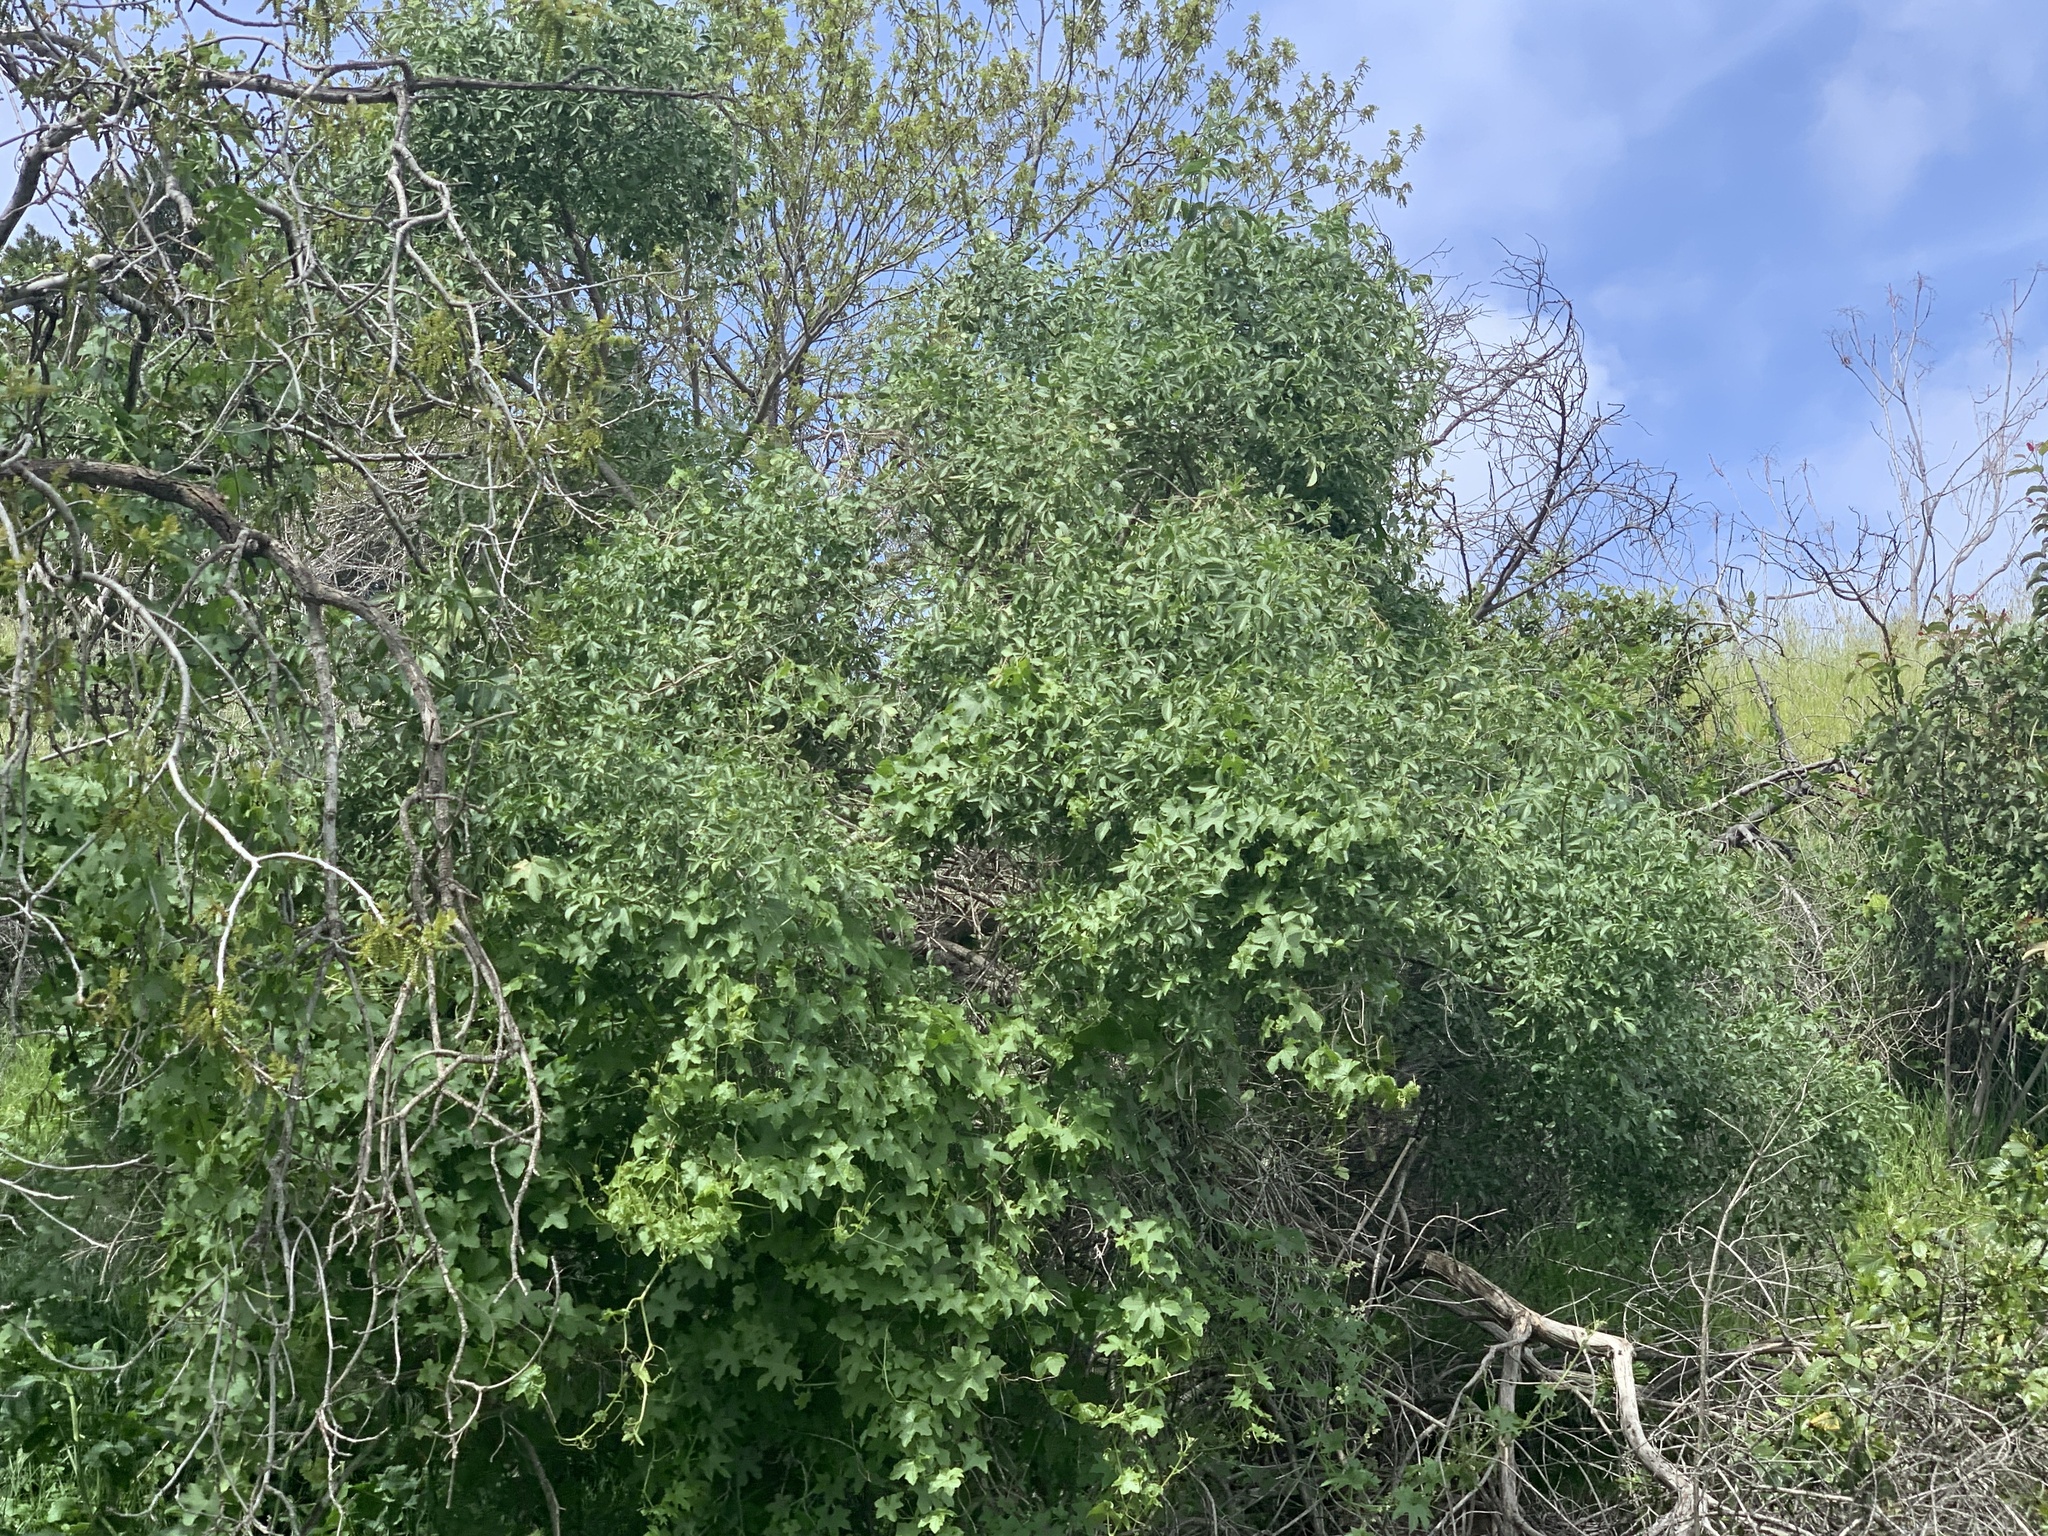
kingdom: Plantae
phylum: Tracheophyta
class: Magnoliopsida
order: Dipsacales
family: Viburnaceae
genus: Sambucus
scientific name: Sambucus cerulea
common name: Blue elder
